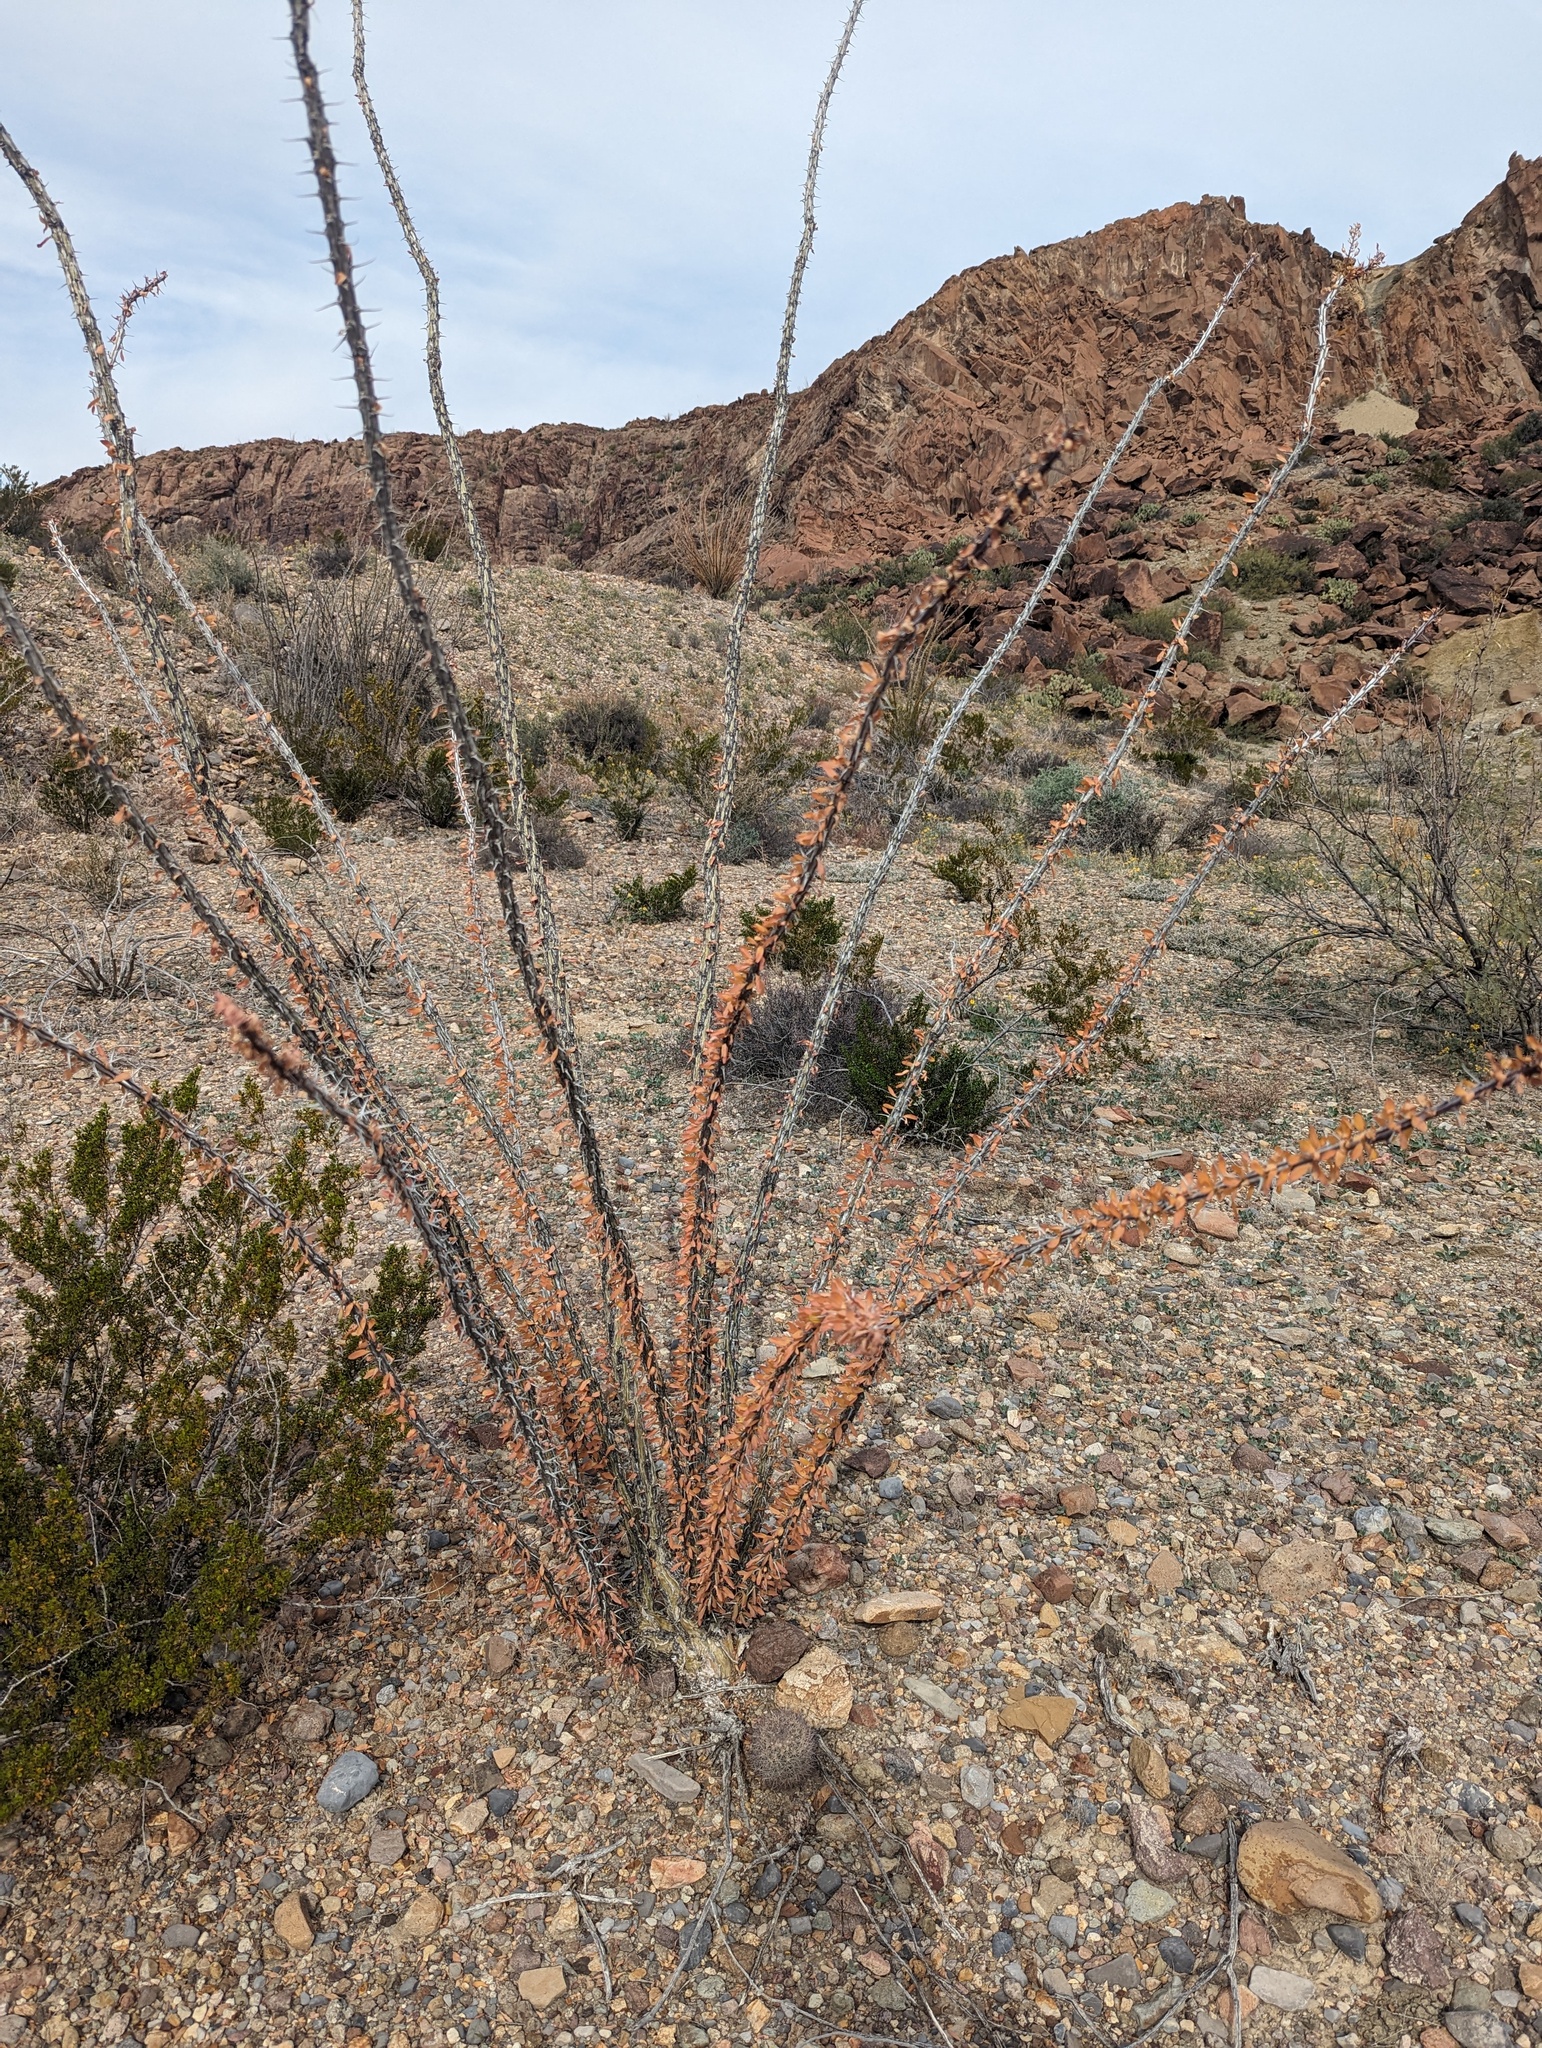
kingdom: Plantae
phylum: Tracheophyta
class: Magnoliopsida
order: Ericales
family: Fouquieriaceae
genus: Fouquieria
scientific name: Fouquieria splendens
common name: Vine-cactus
